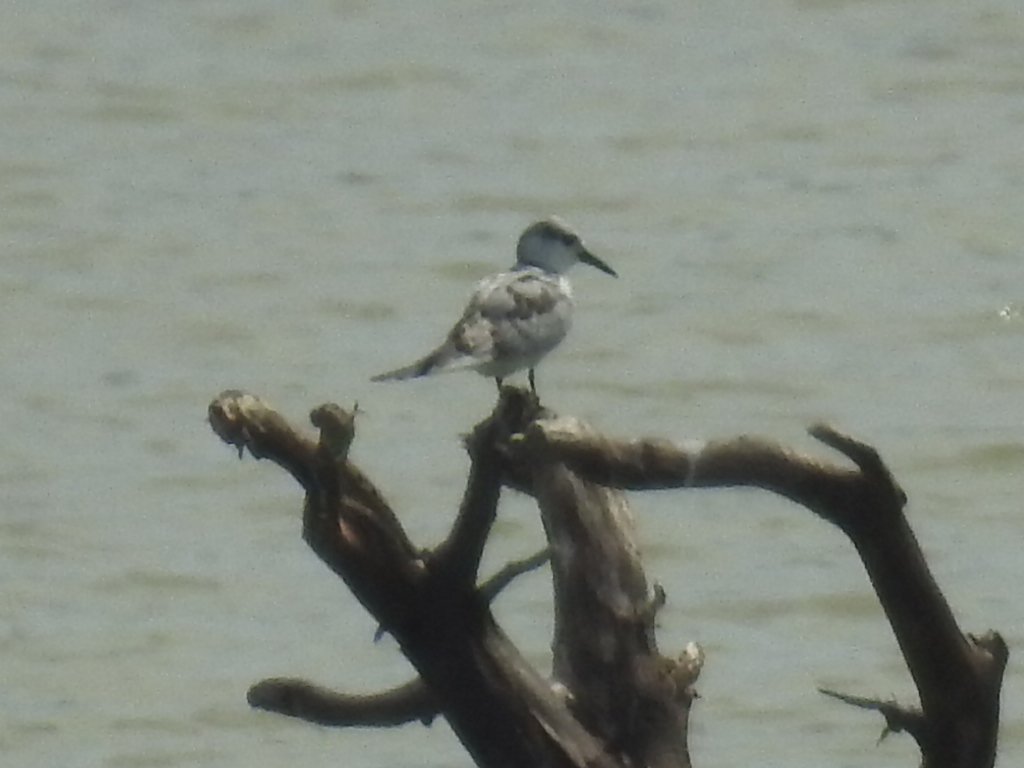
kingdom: Animalia
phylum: Chordata
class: Aves
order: Charadriiformes
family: Laridae
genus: Chlidonias
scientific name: Chlidonias hybrida
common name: Whiskered tern
